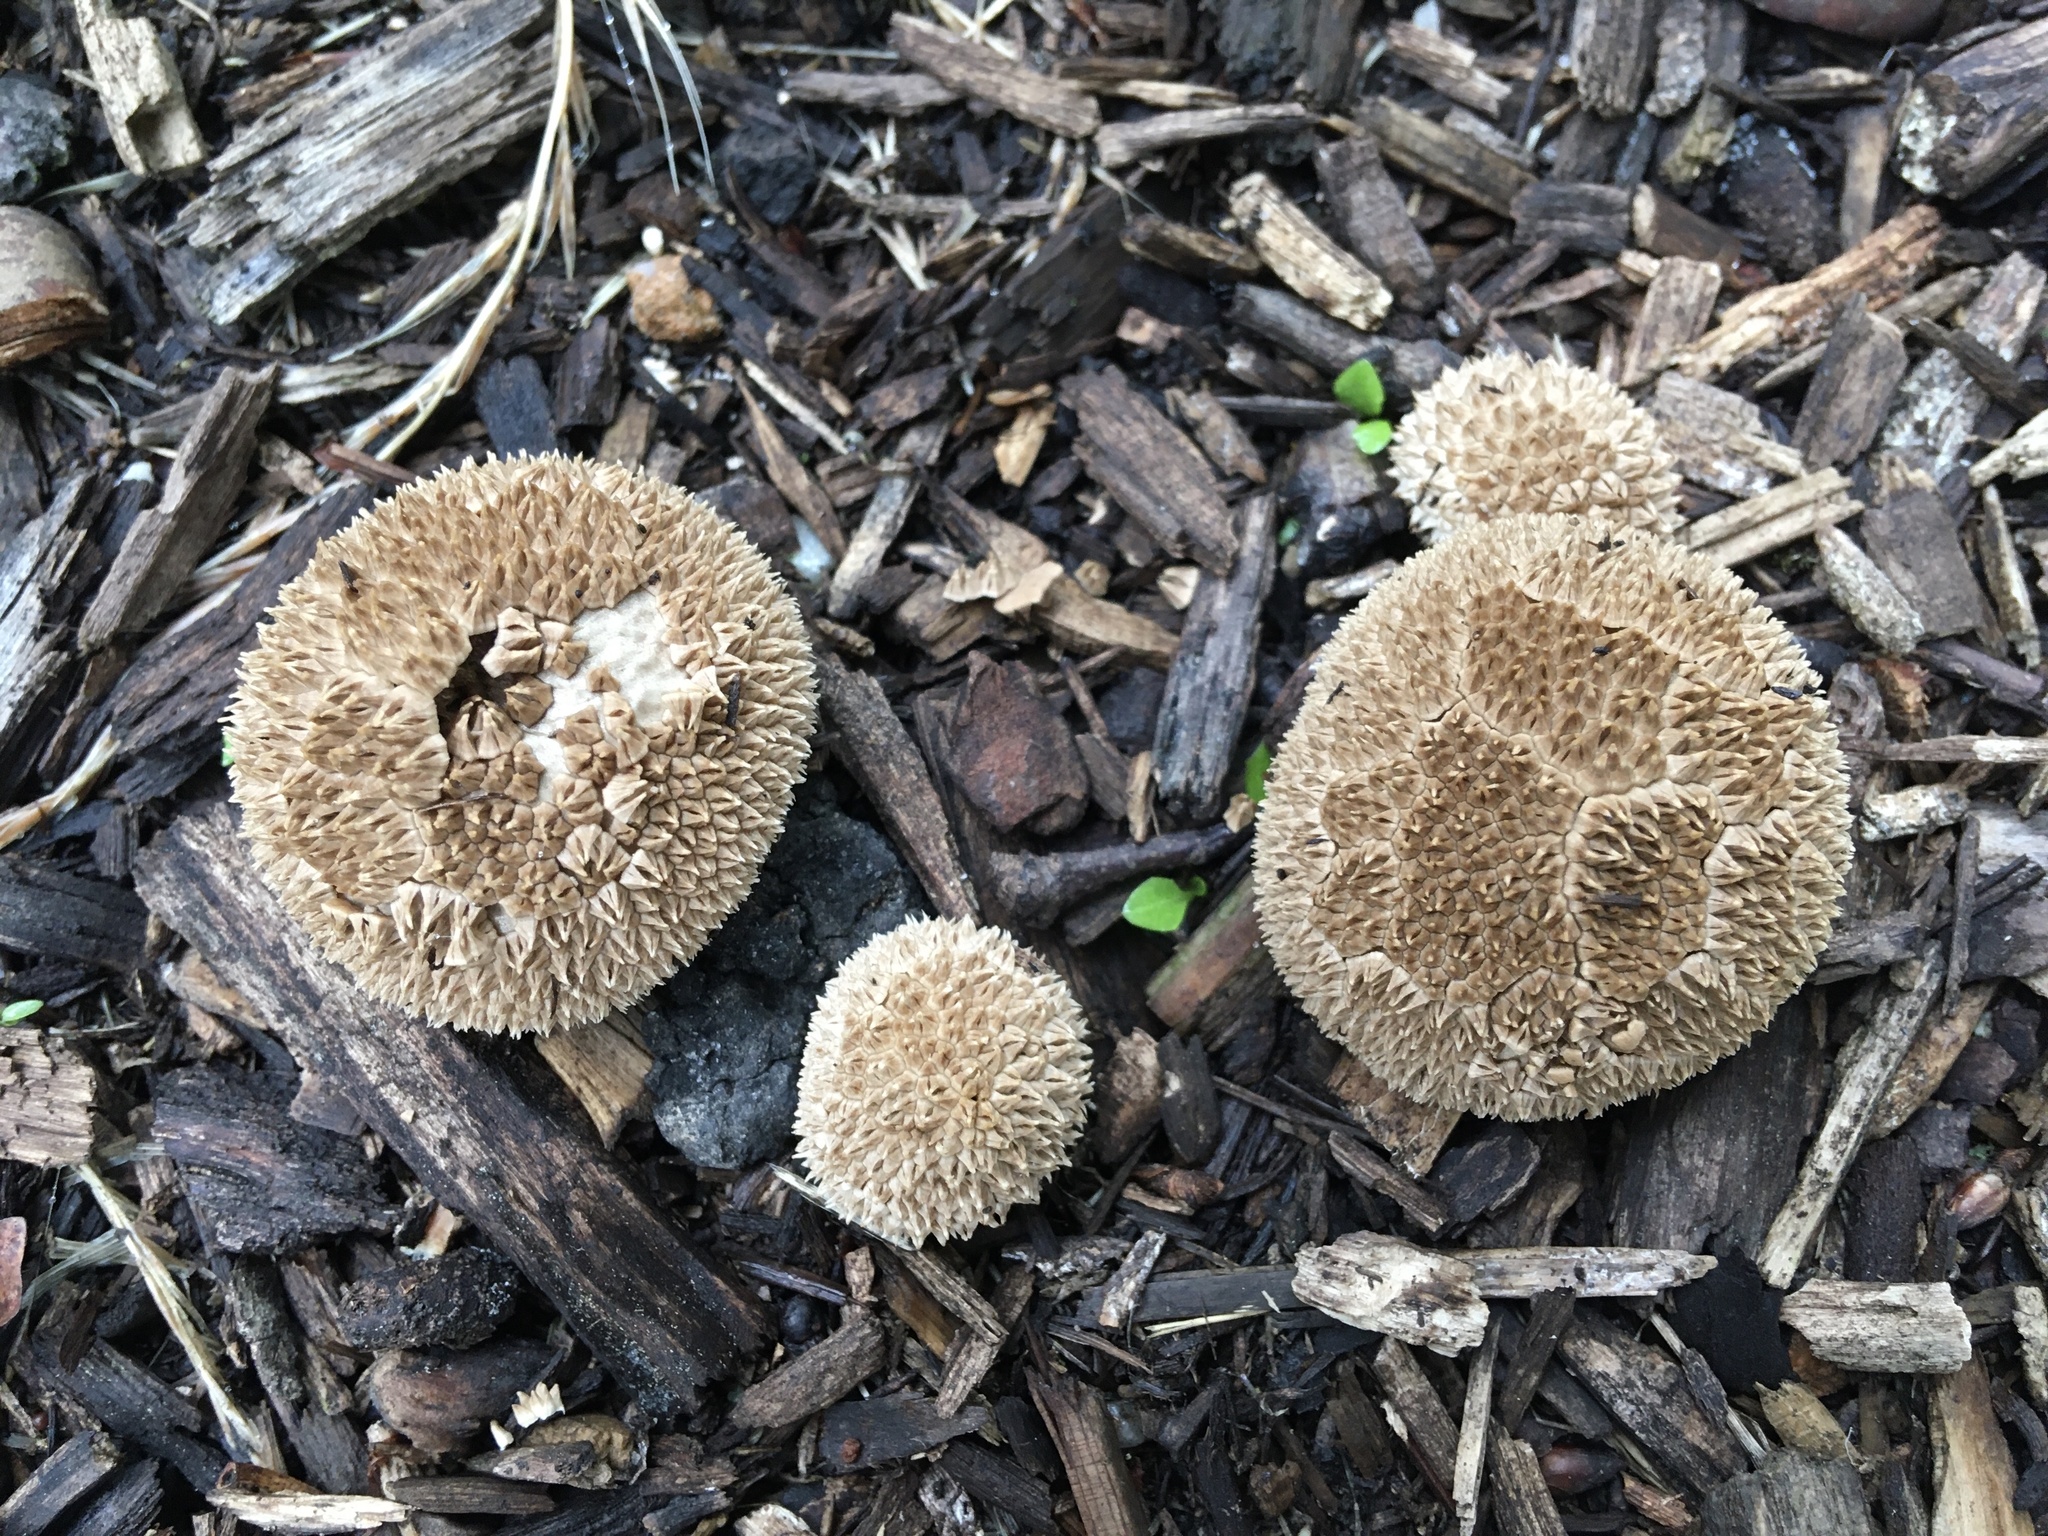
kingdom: Fungi
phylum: Basidiomycota
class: Agaricomycetes
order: Agaricales
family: Agaricaceae
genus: Lycoperdon
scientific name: Lycoperdon marginatum
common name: Peeling puffball
